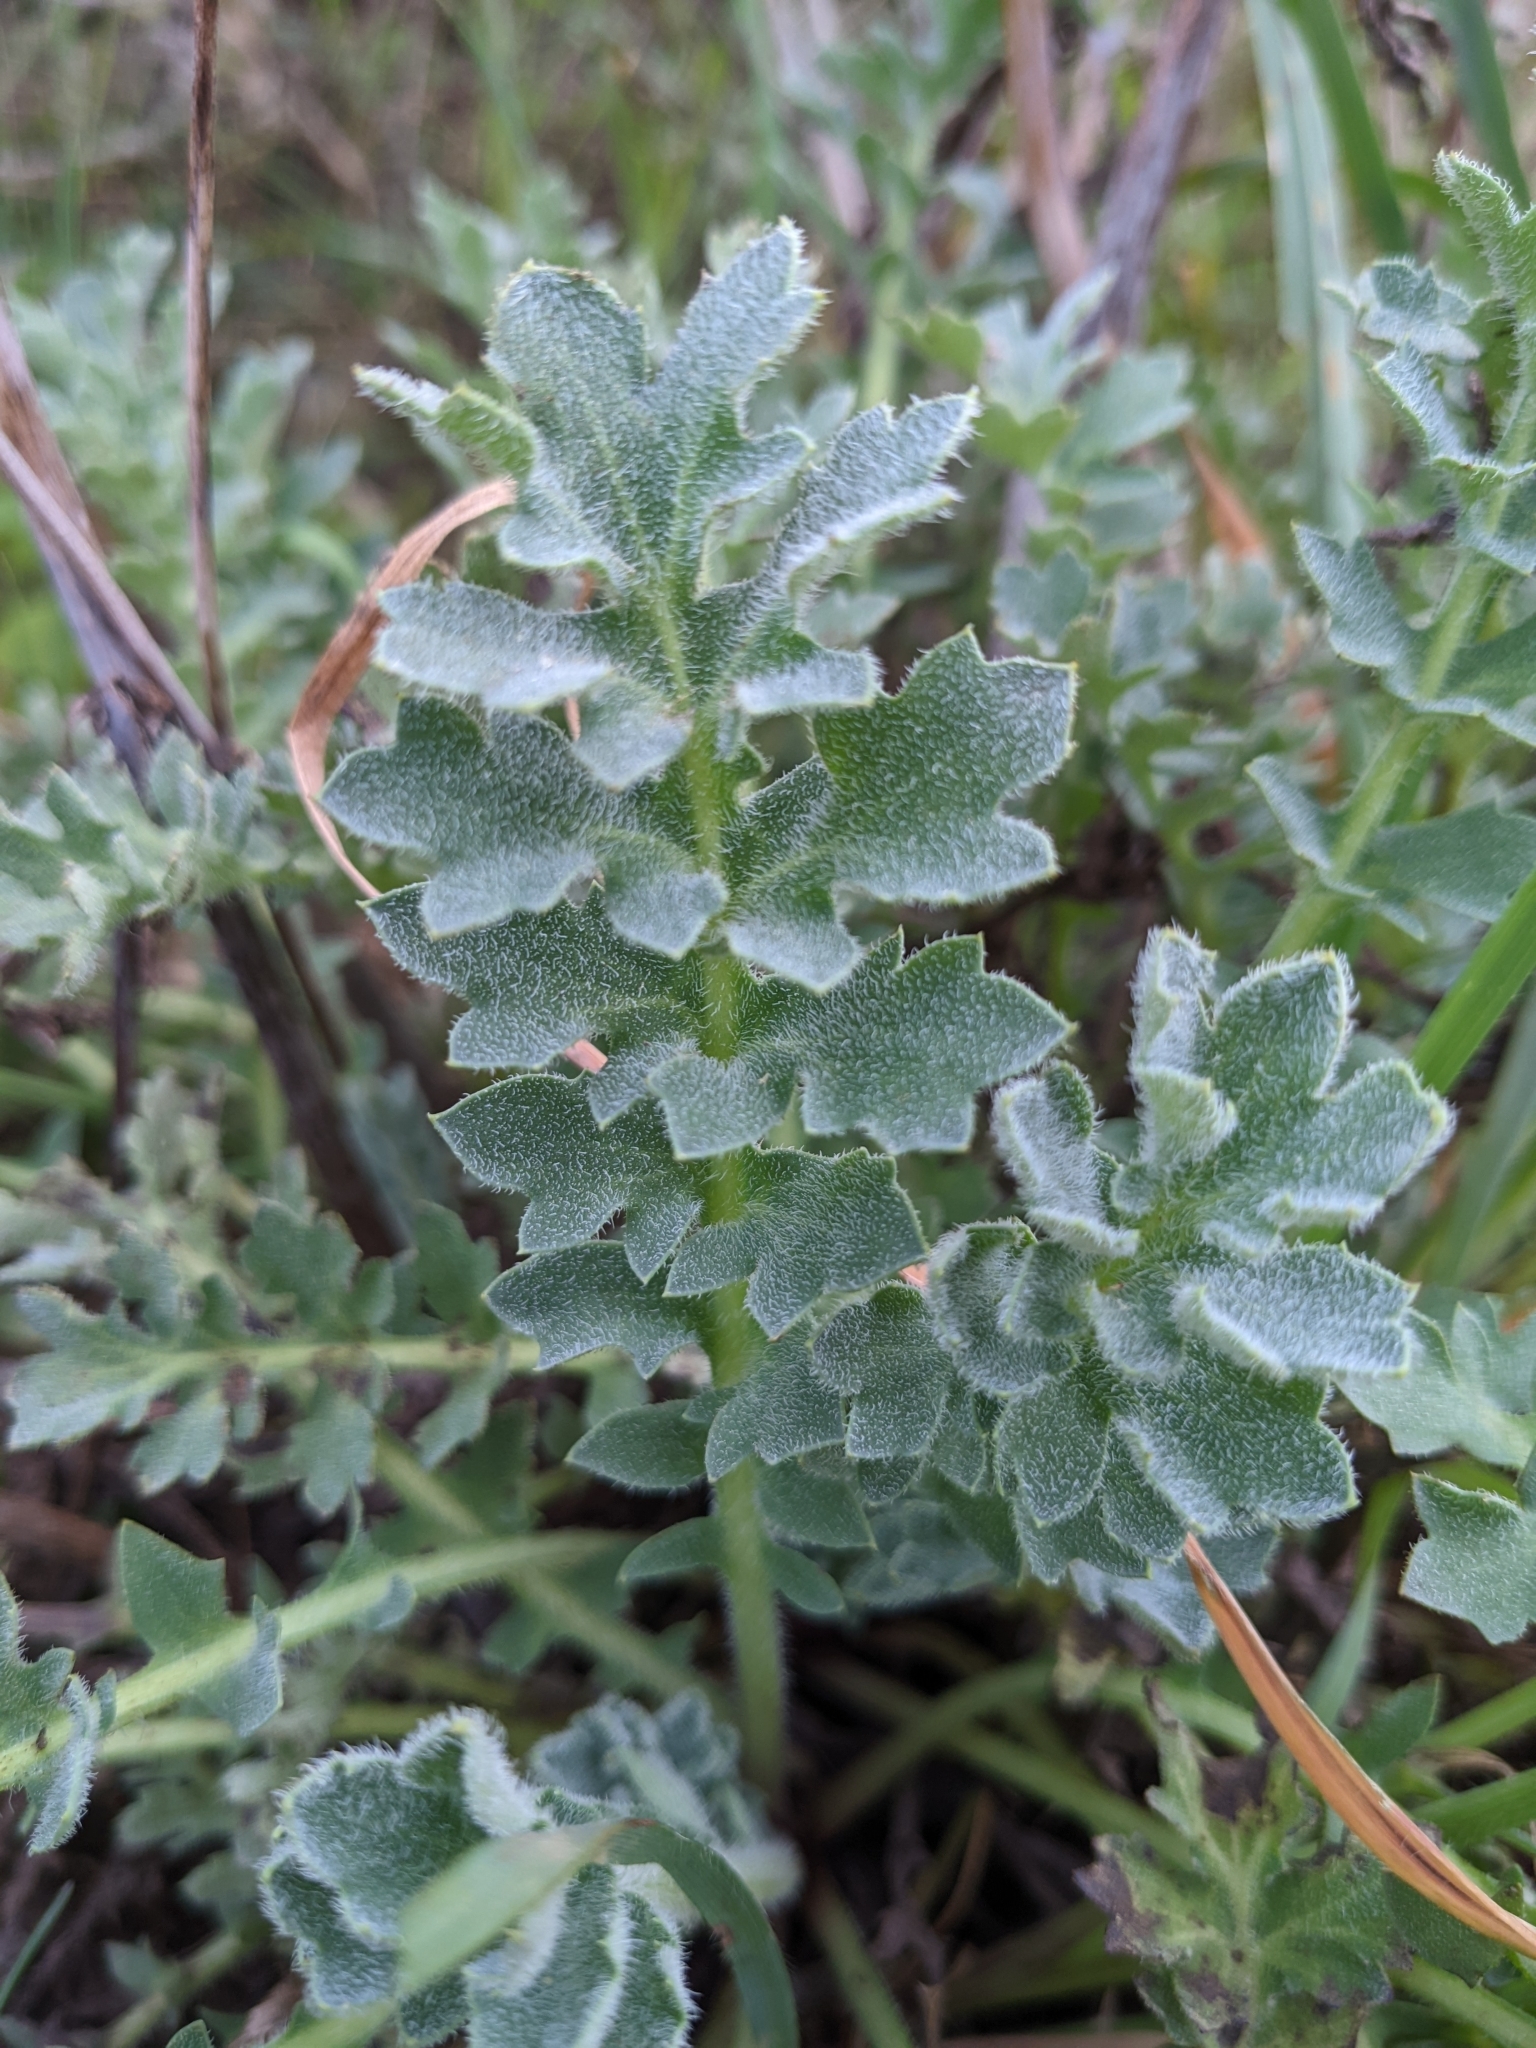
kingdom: Plantae
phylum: Tracheophyta
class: Magnoliopsida
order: Ranunculales
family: Papaveraceae
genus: Glaucium
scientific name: Glaucium flavum
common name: Yellow horned-poppy
